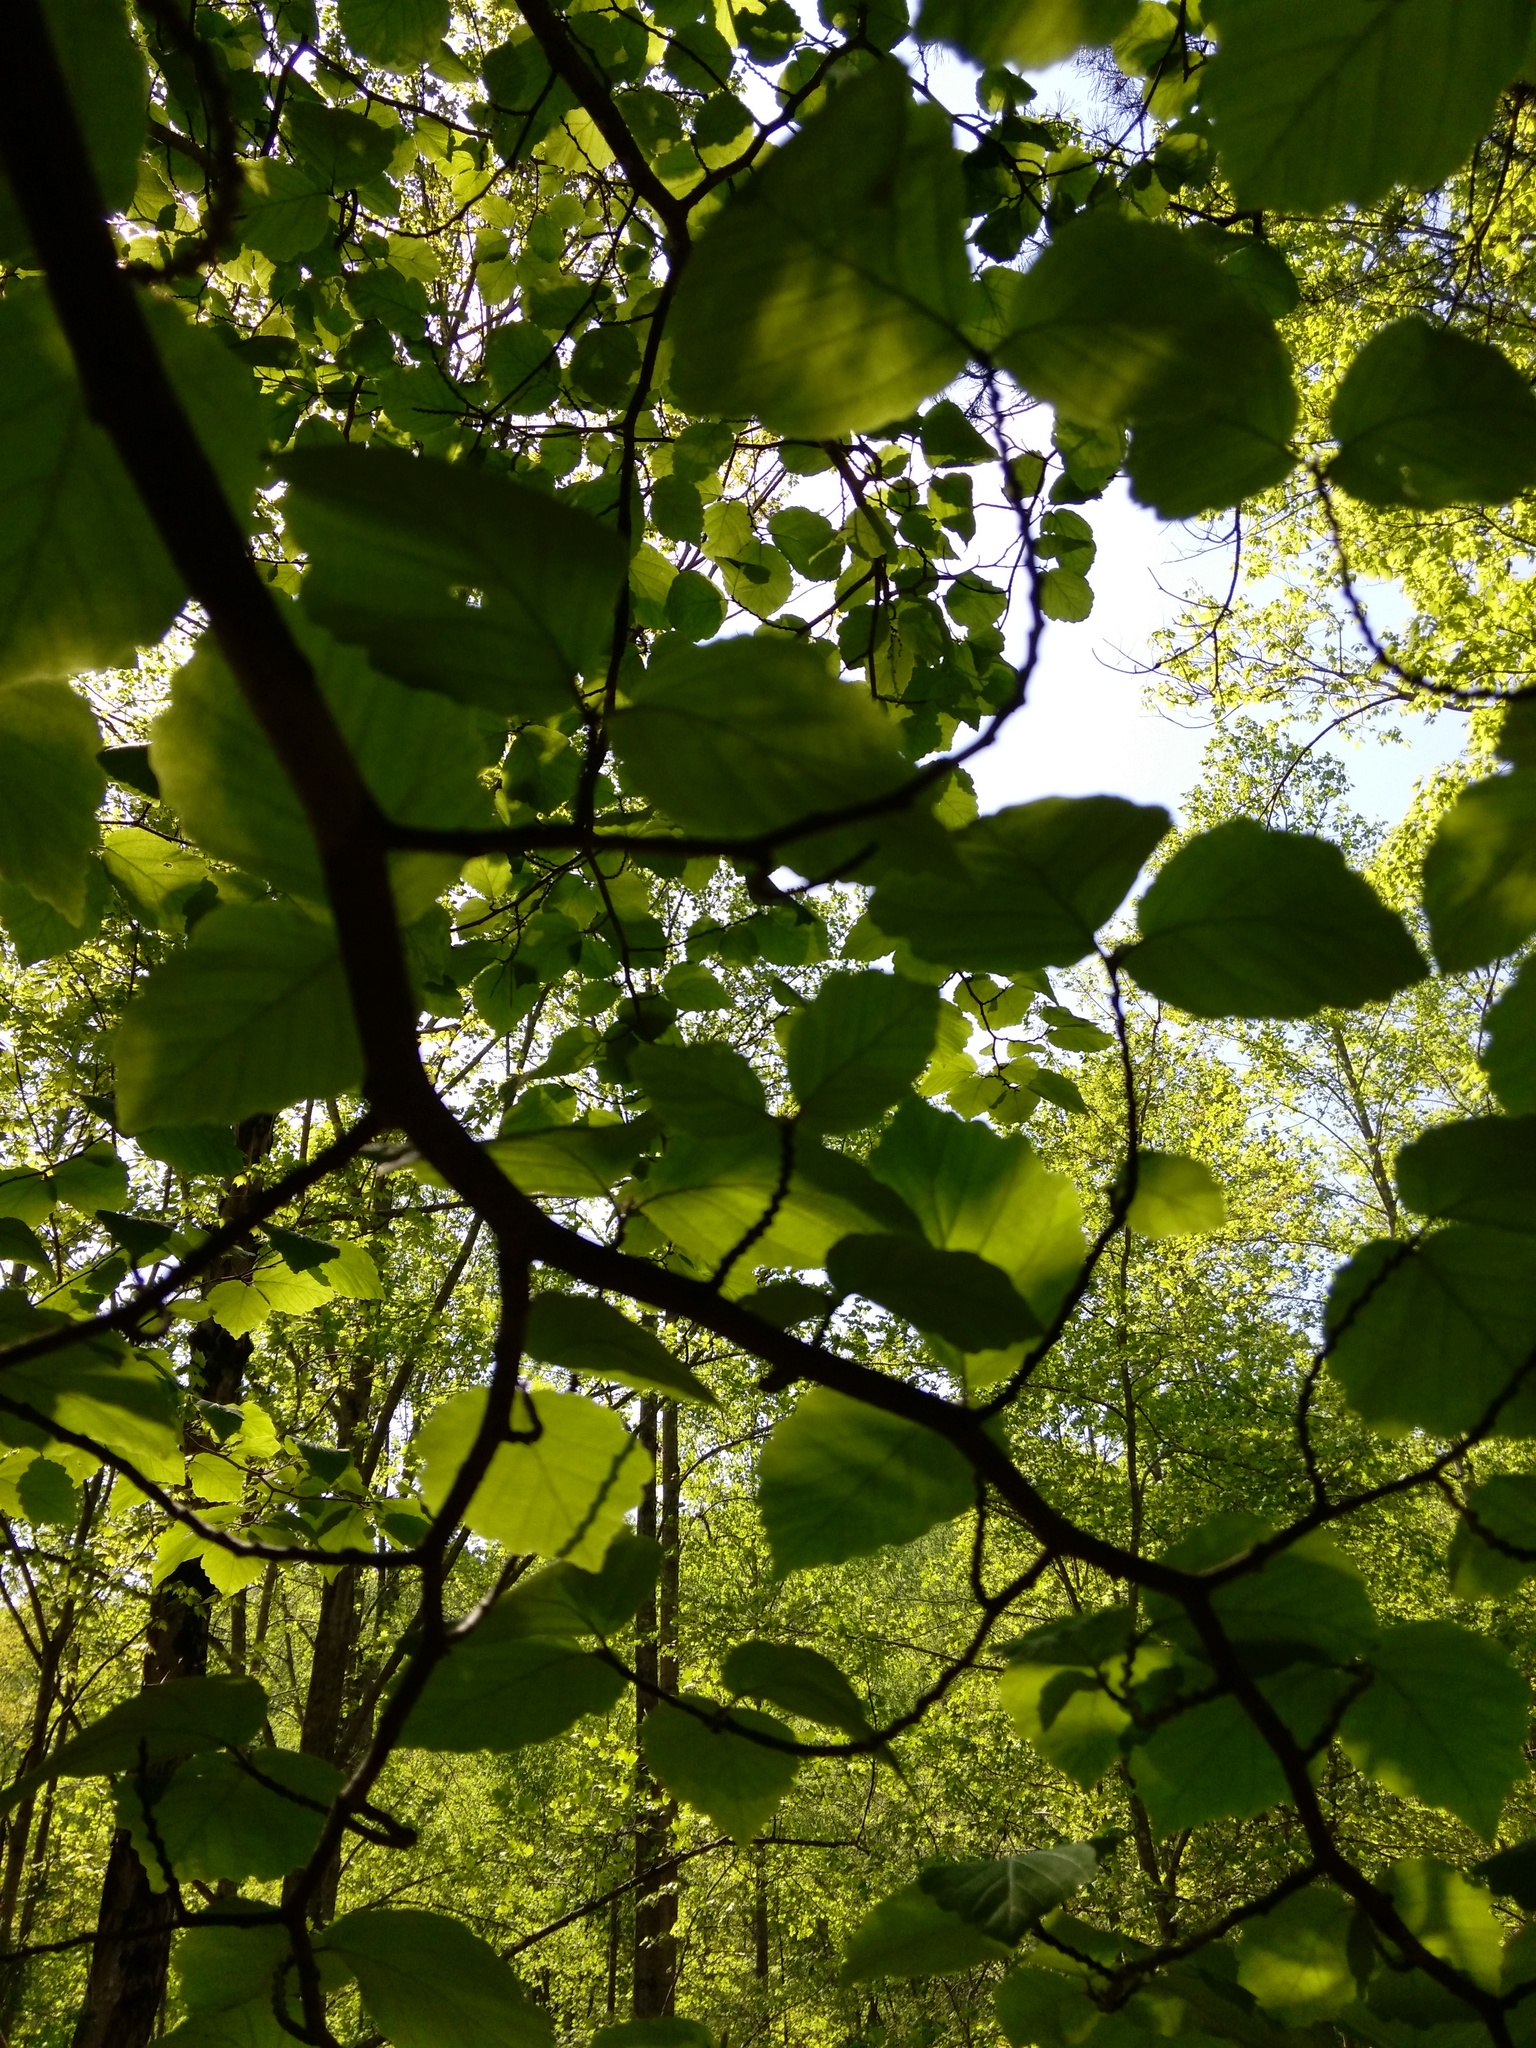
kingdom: Plantae
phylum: Tracheophyta
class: Magnoliopsida
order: Saxifragales
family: Hamamelidaceae
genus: Hamamelis
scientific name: Hamamelis virginiana
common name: Witch-hazel
